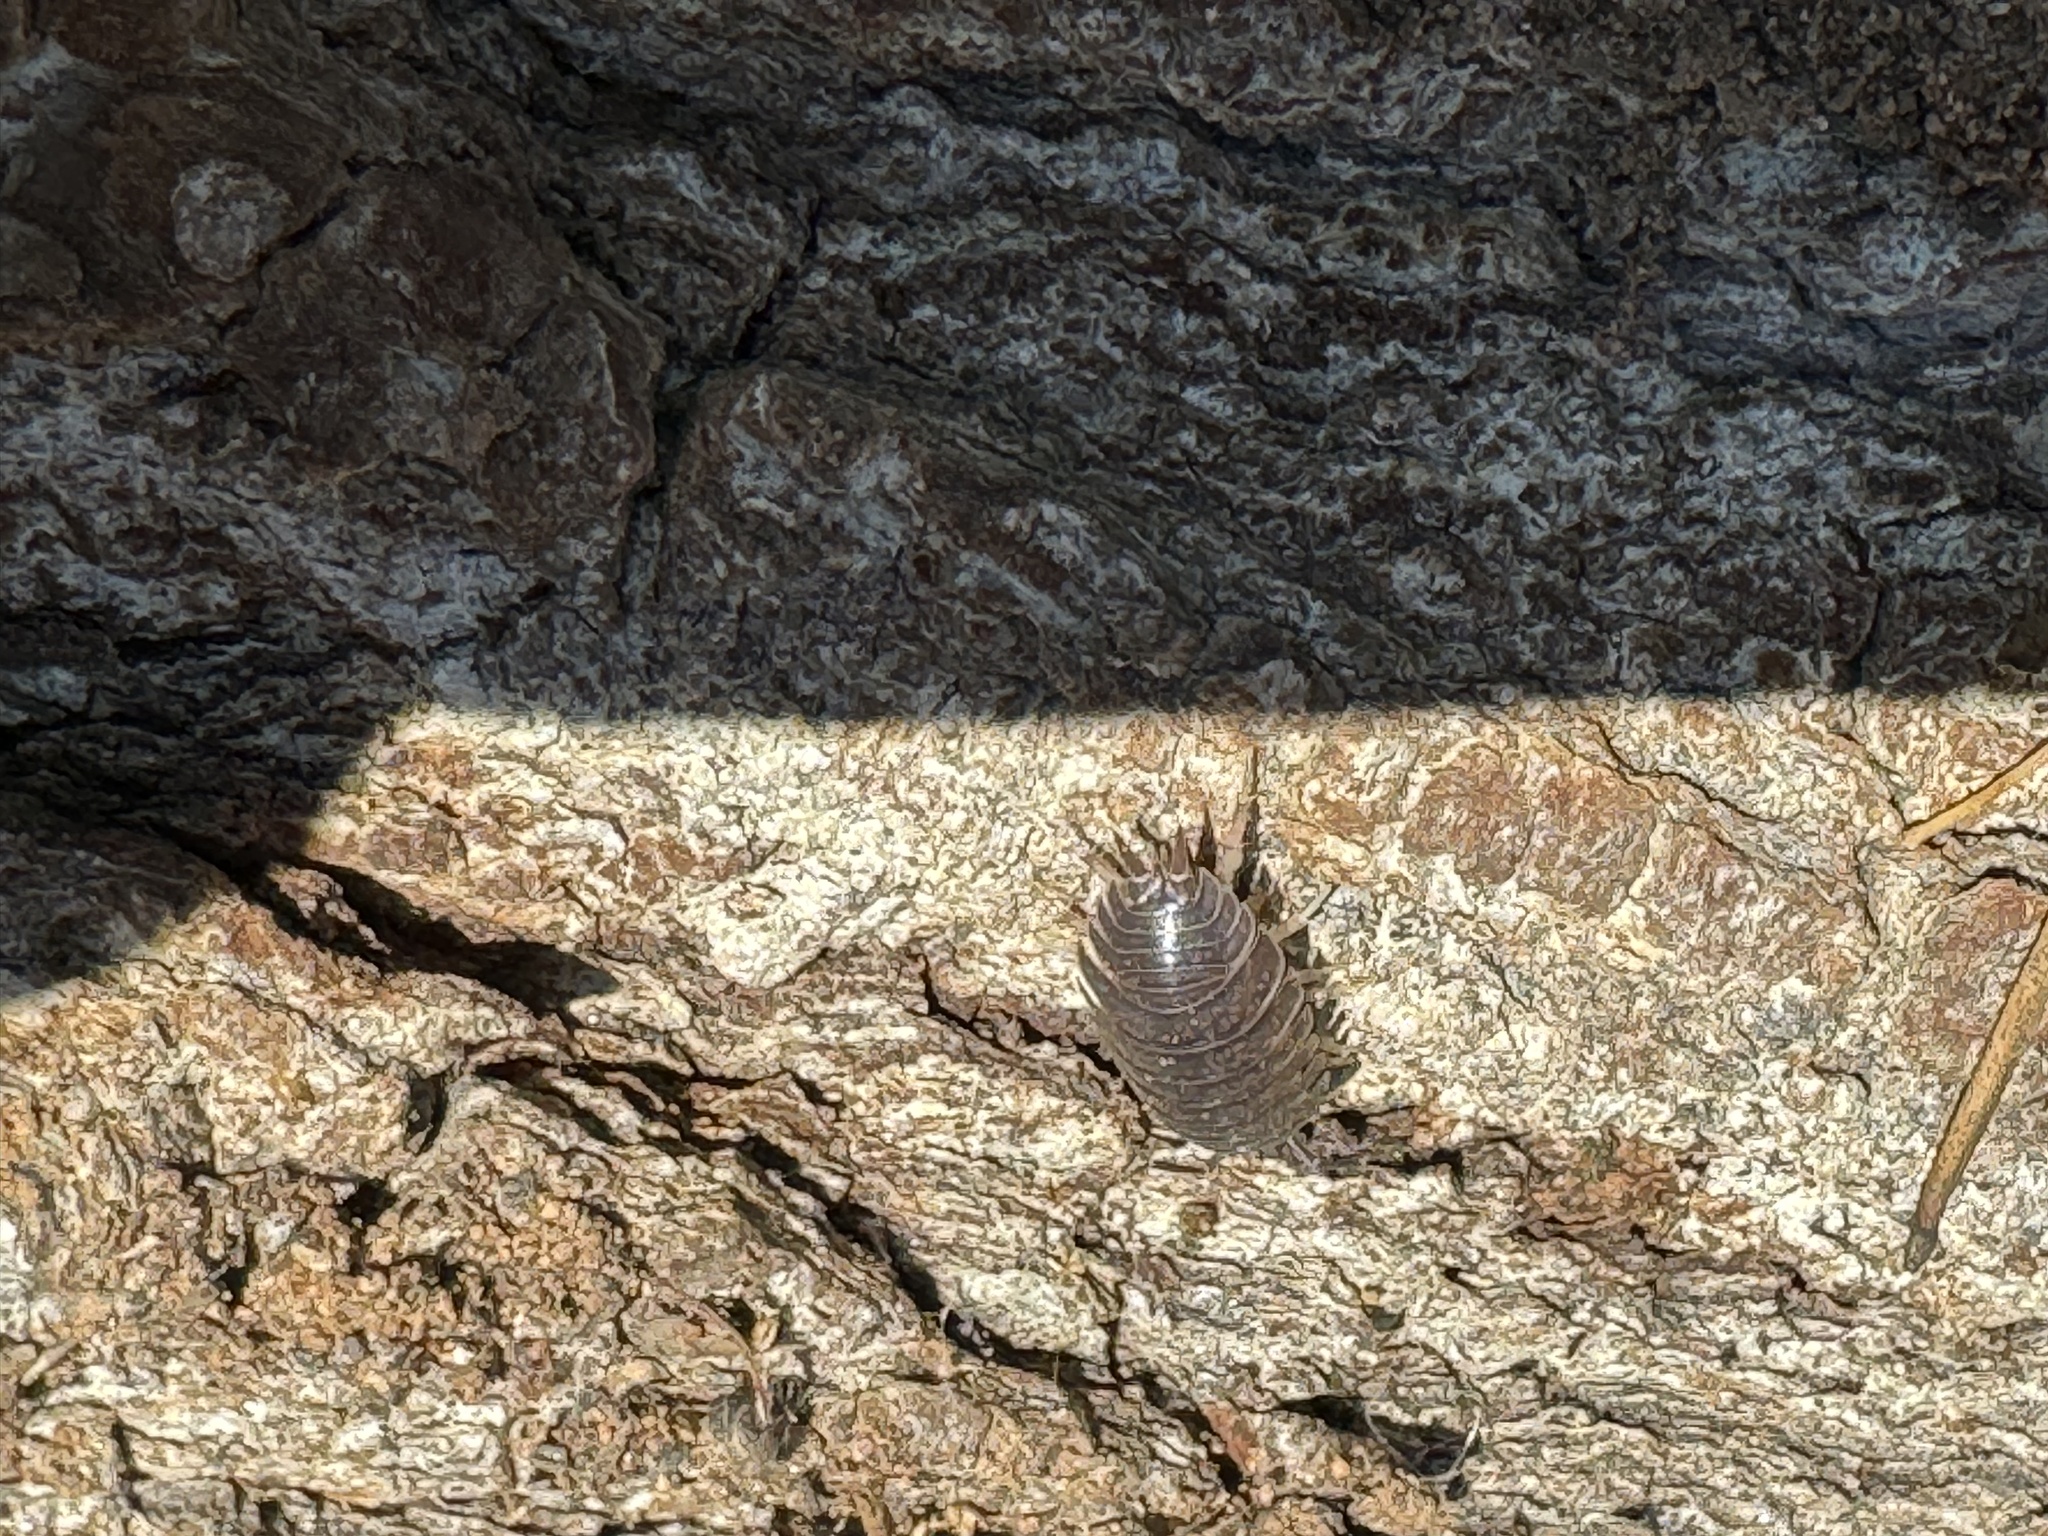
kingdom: Animalia
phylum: Arthropoda
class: Malacostraca
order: Isopoda
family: Porcellionidae
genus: Porcellio
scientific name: Porcellio laevis
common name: Swift woodlouse
